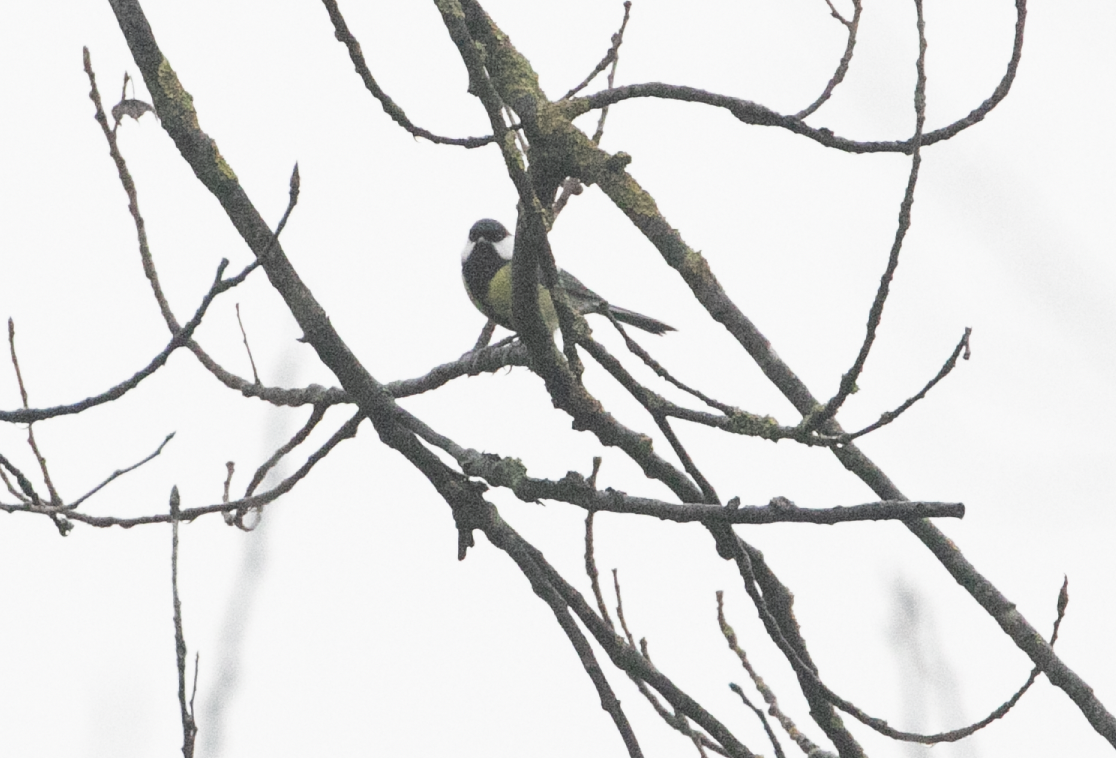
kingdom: Animalia
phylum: Chordata
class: Aves
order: Passeriformes
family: Paridae
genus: Parus
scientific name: Parus major
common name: Great tit
